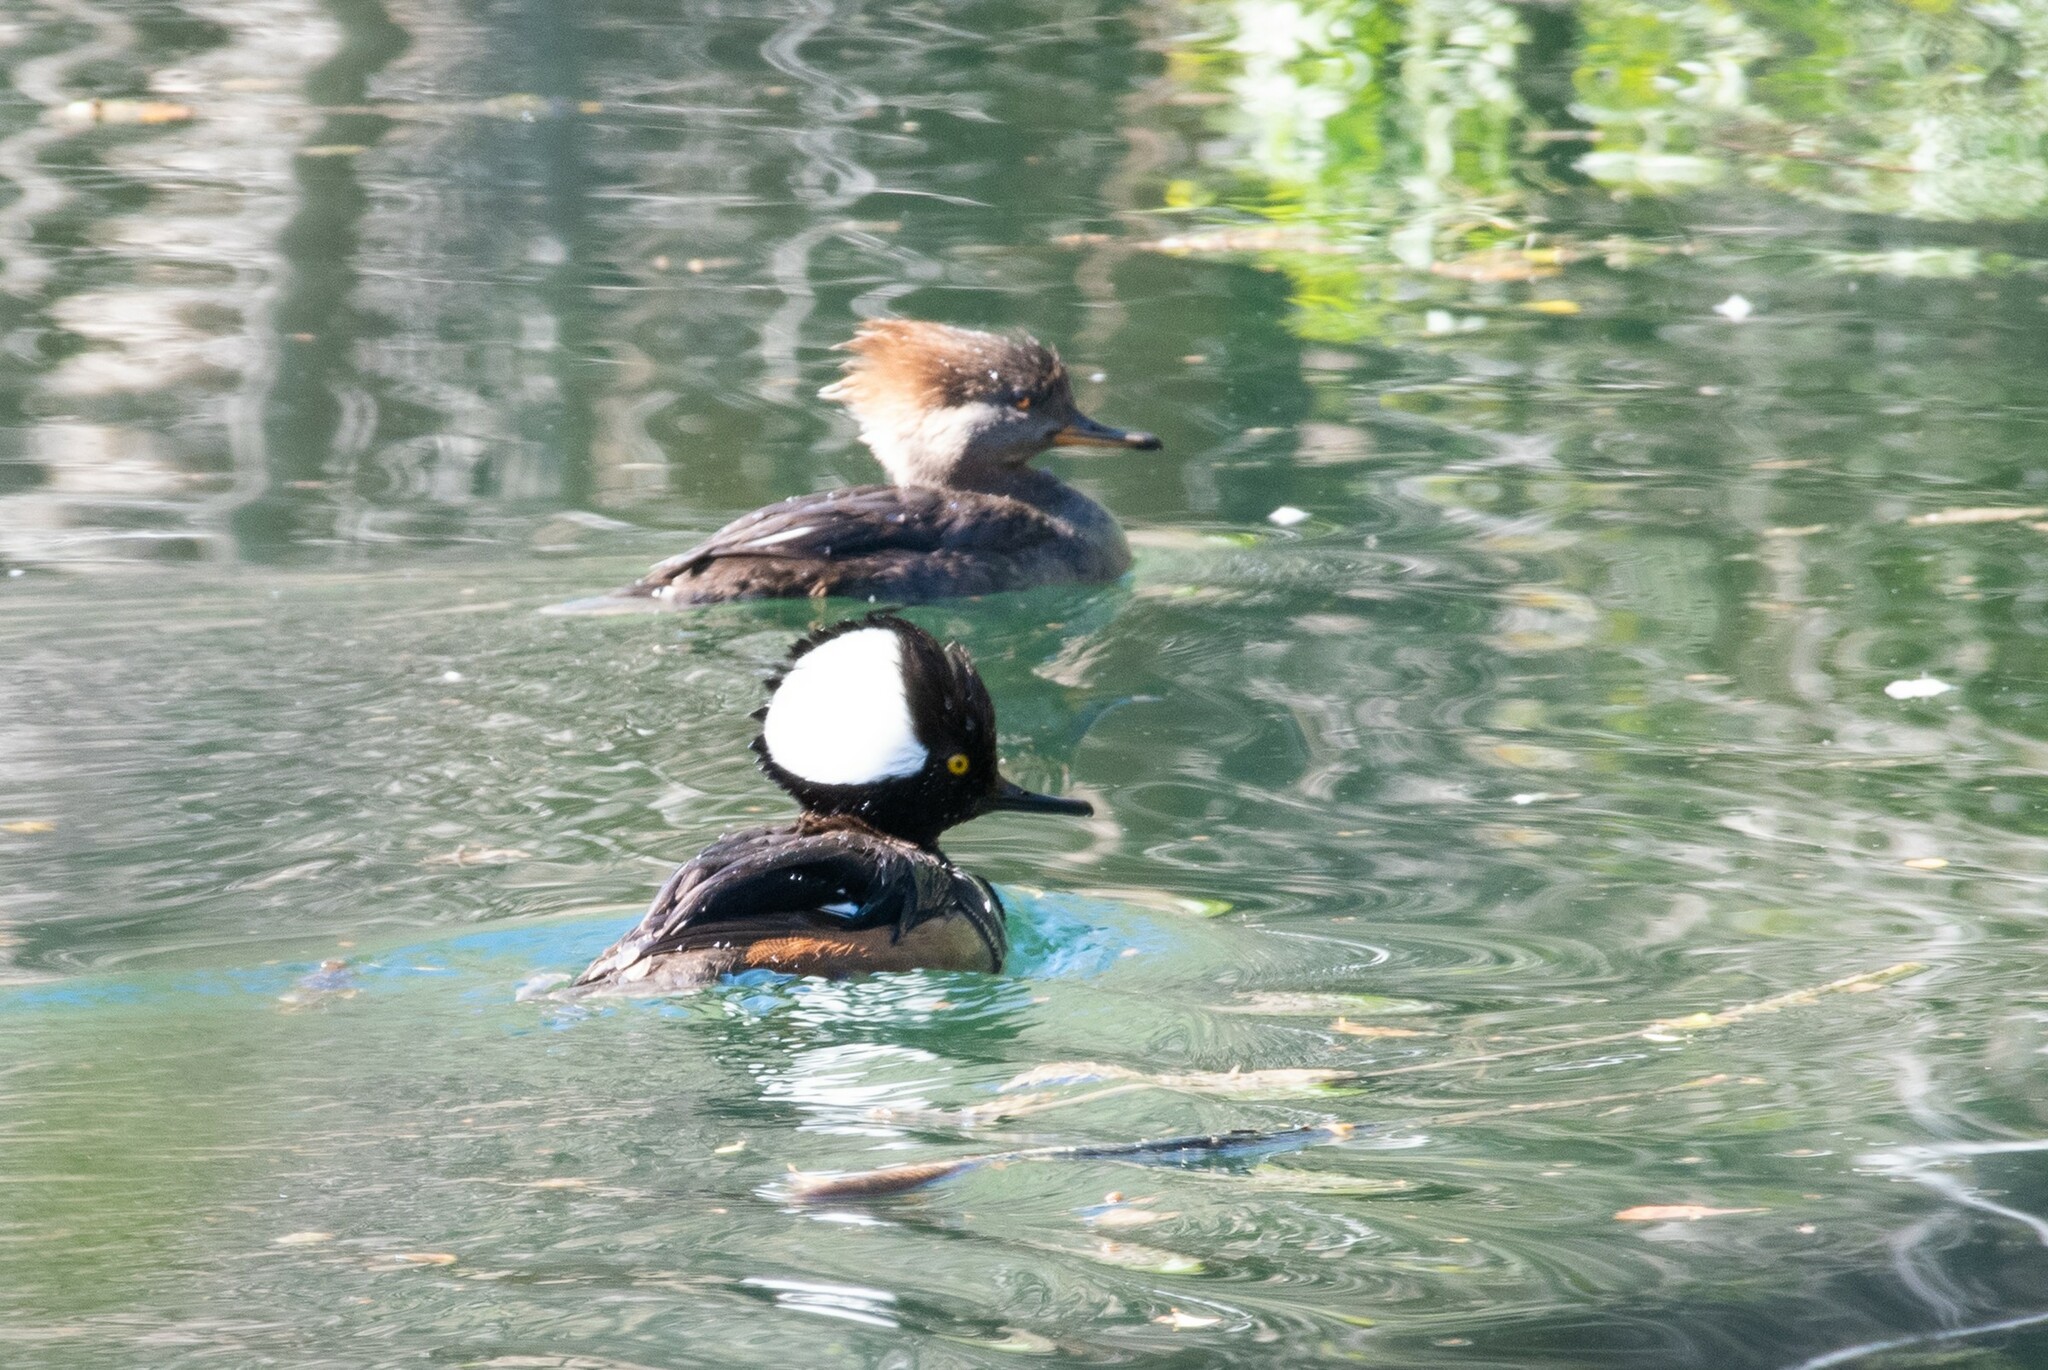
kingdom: Animalia
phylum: Chordata
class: Aves
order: Anseriformes
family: Anatidae
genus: Lophodytes
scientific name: Lophodytes cucullatus
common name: Hooded merganser
